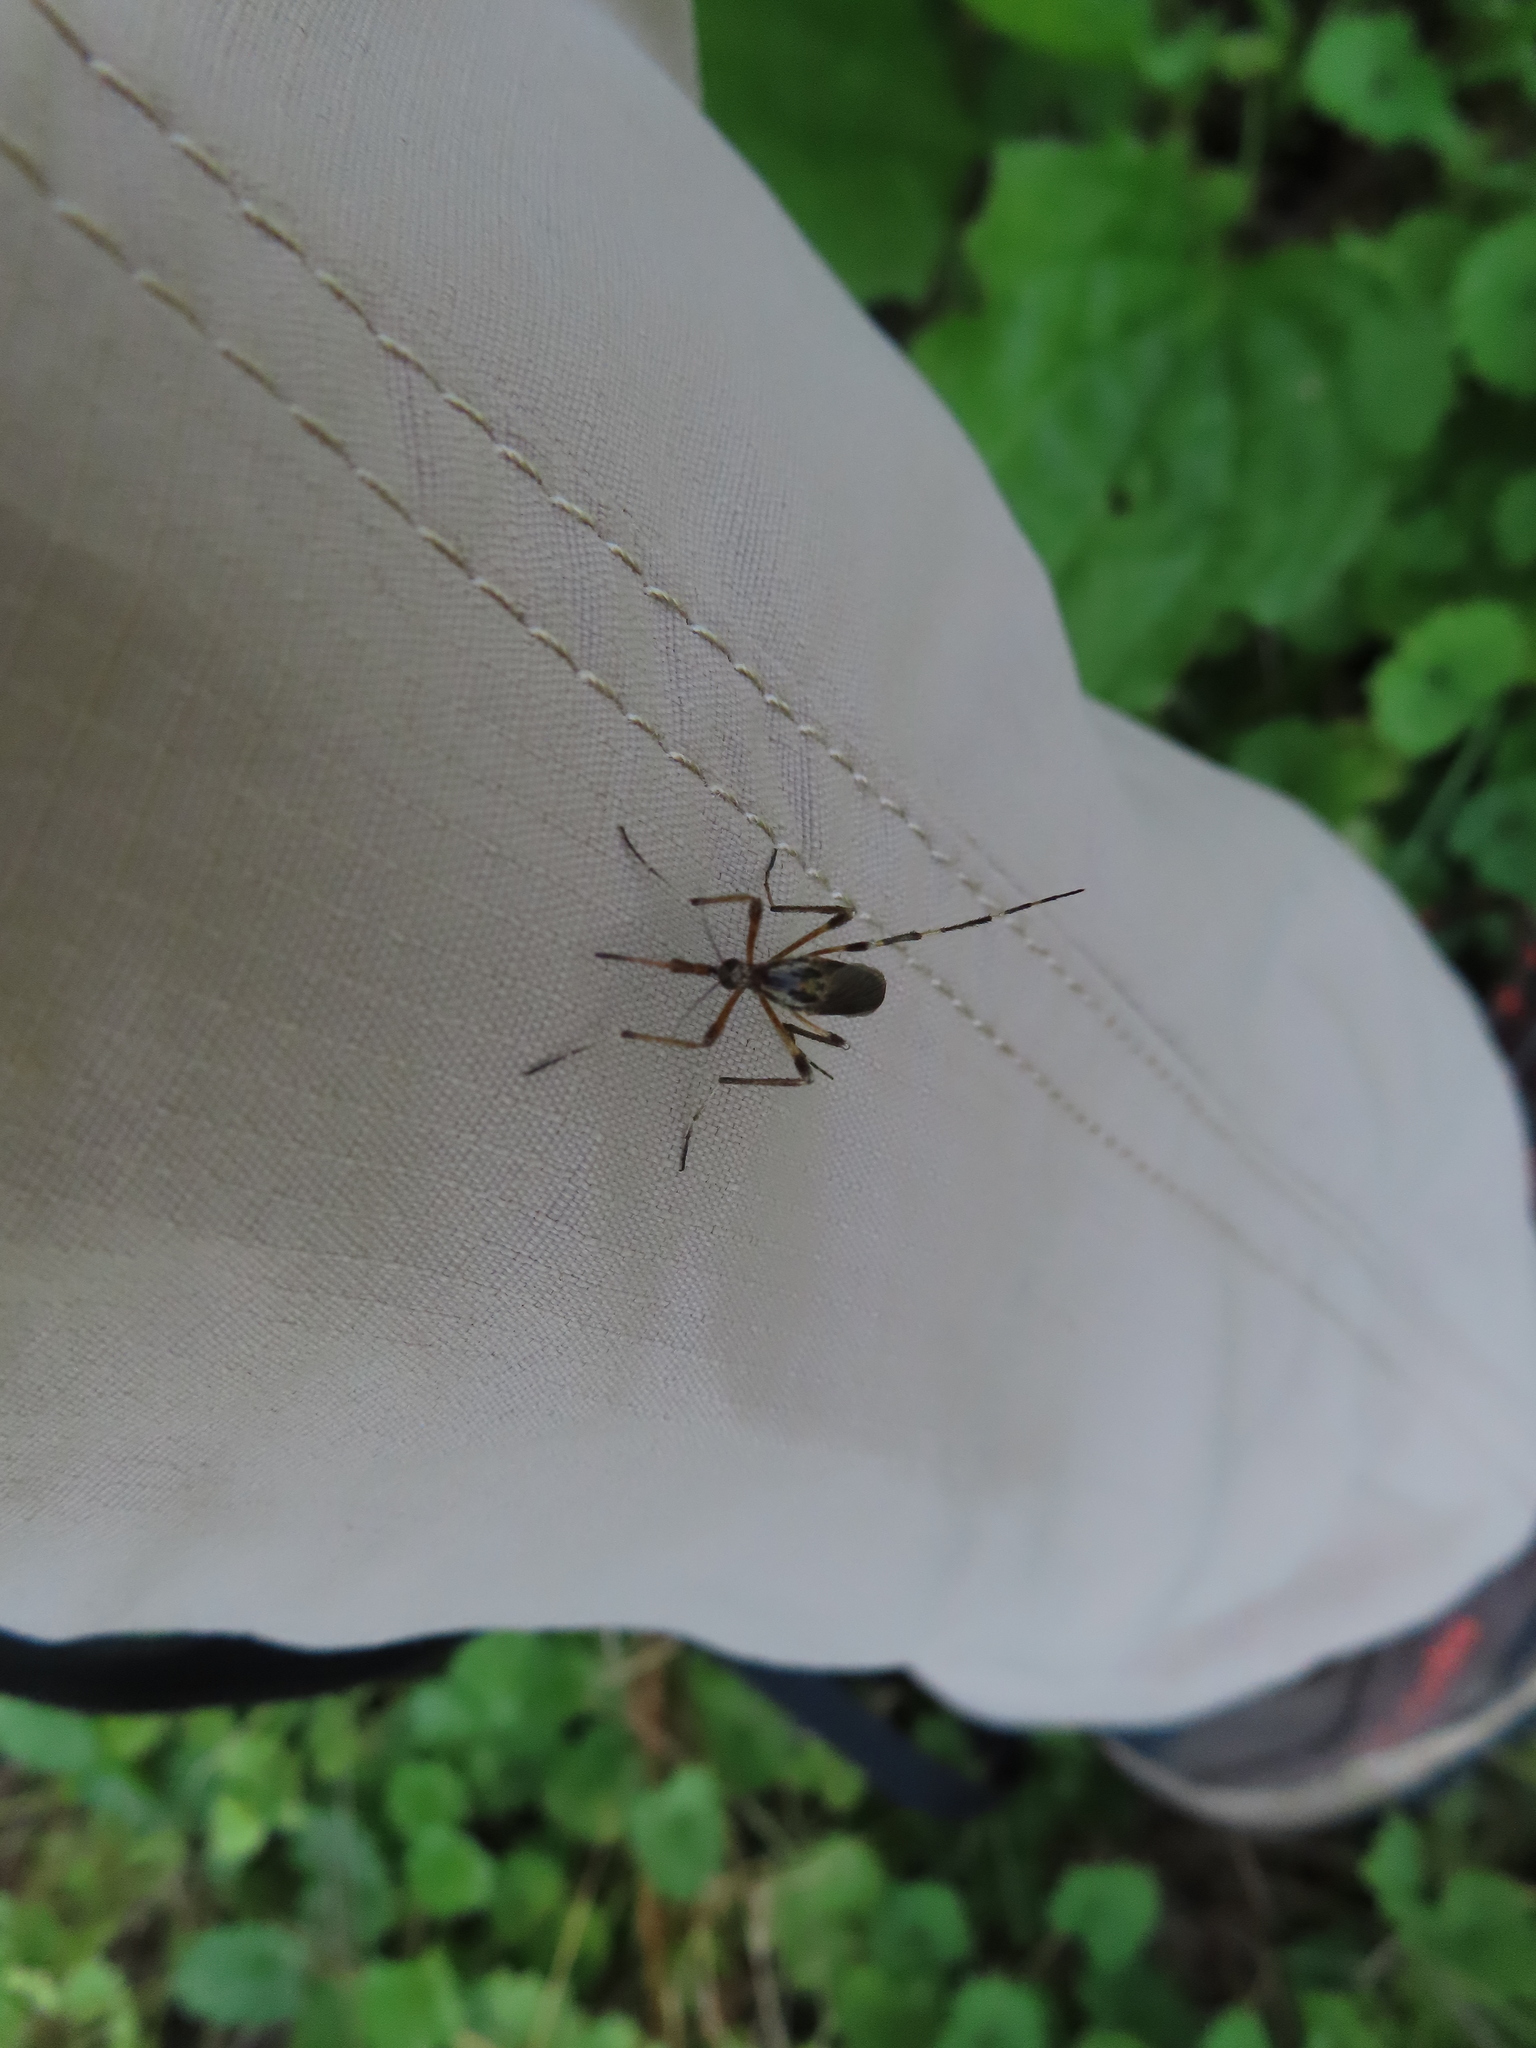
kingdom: Animalia
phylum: Arthropoda
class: Insecta
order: Diptera
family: Culicidae
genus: Psorophora
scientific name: Psorophora ciliata
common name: Gallinipper
